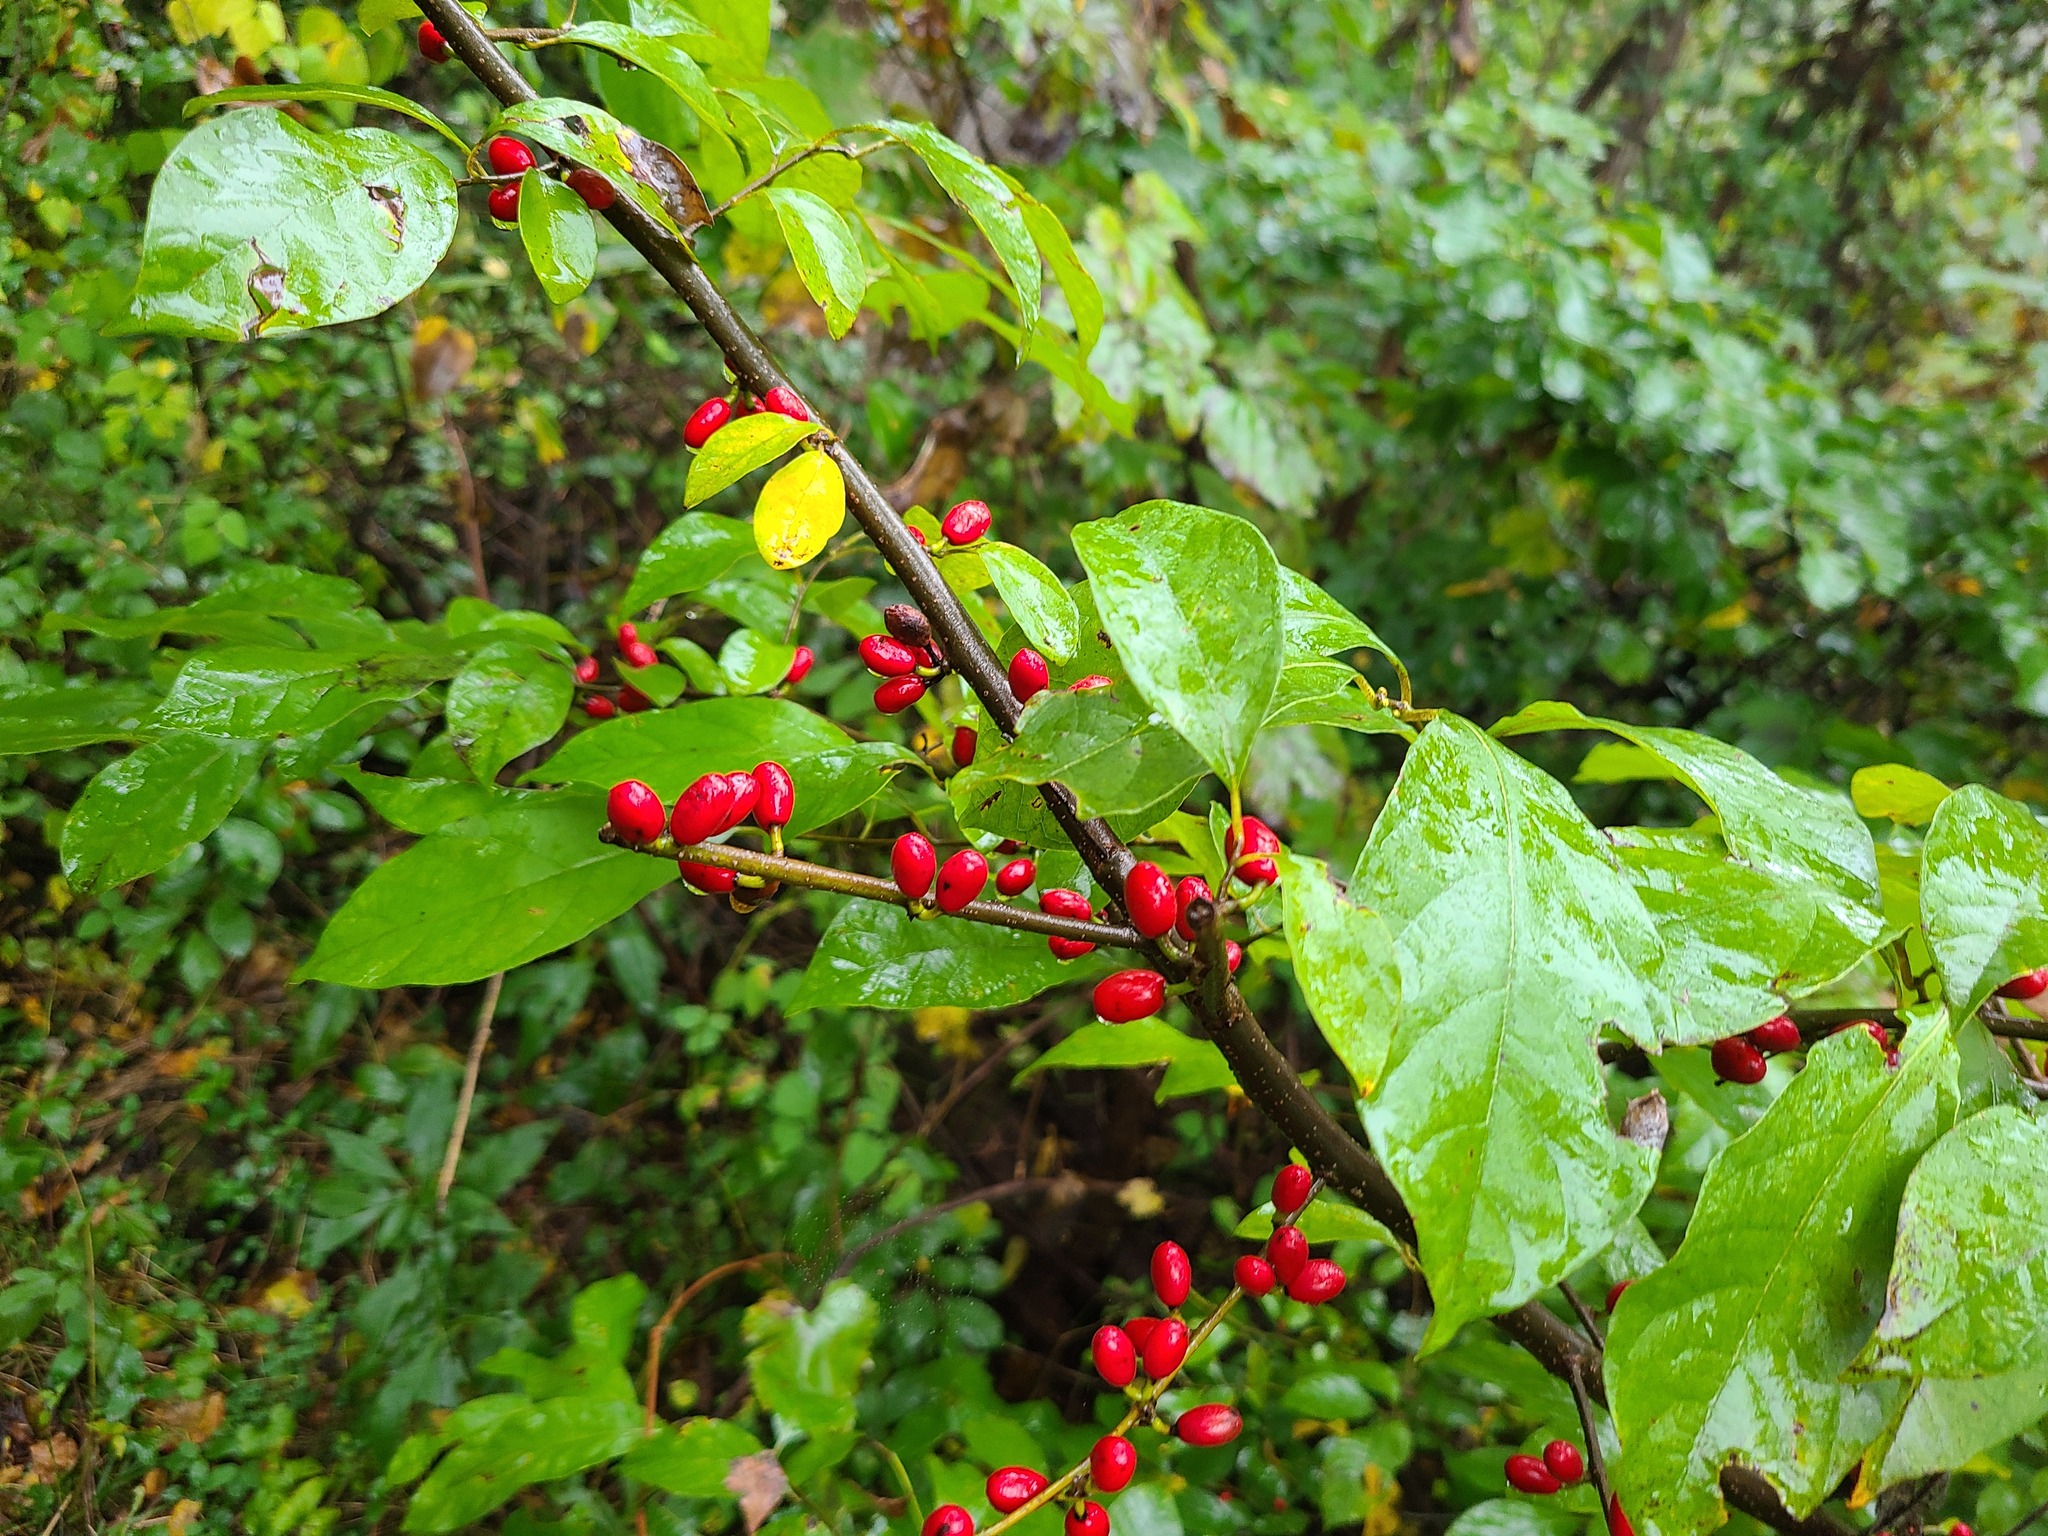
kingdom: Plantae
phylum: Tracheophyta
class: Magnoliopsida
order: Laurales
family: Lauraceae
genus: Lindera
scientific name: Lindera benzoin
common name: Spicebush
